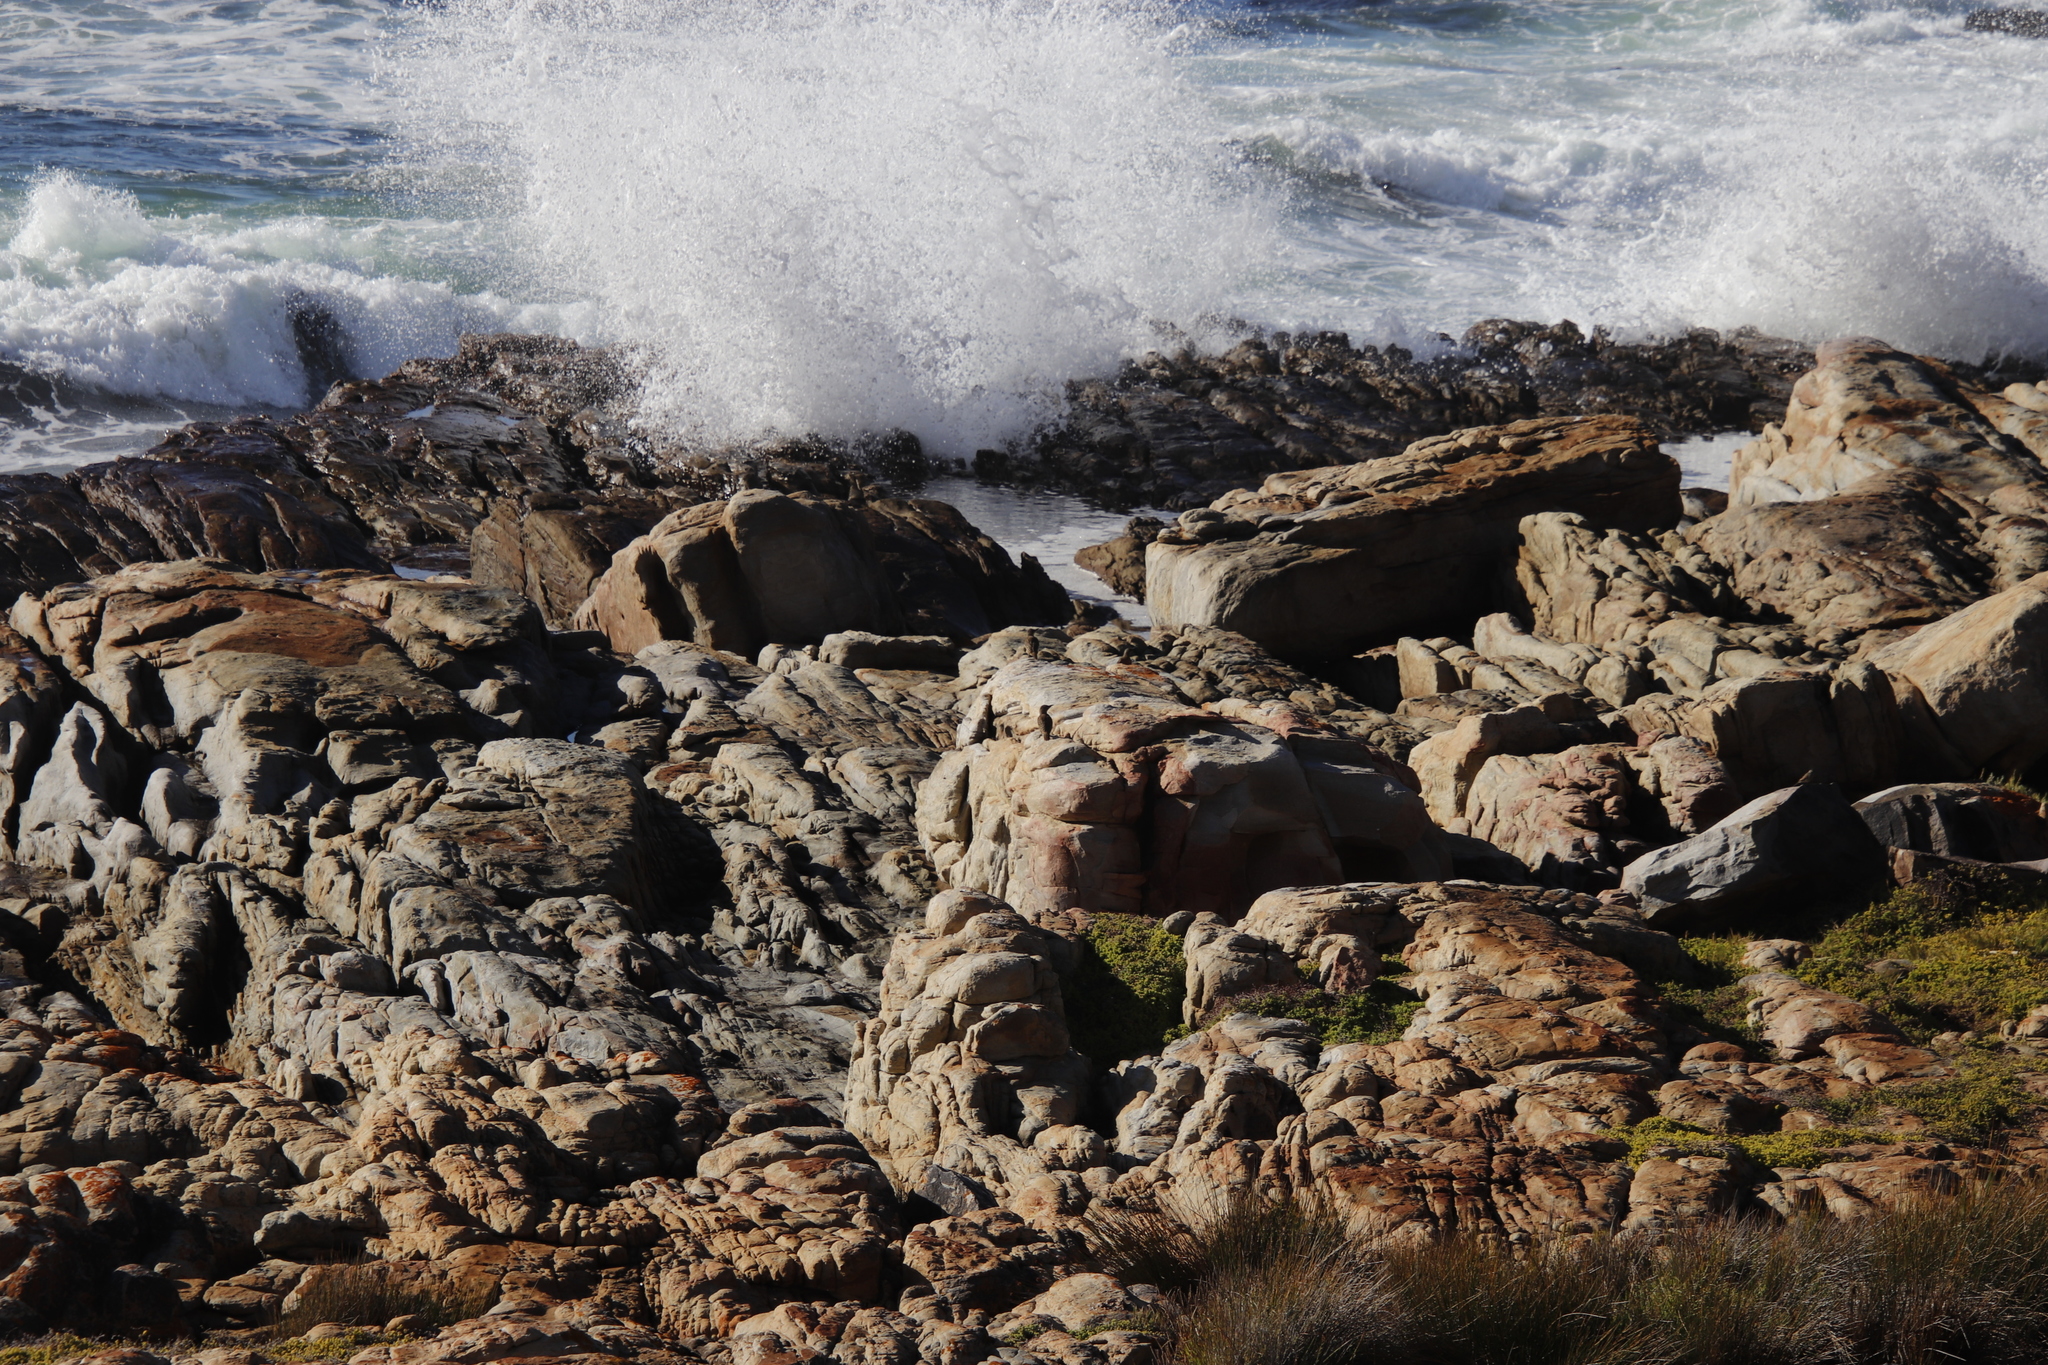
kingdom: Animalia
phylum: Chordata
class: Aves
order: Piciformes
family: Picidae
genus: Geocolaptes
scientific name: Geocolaptes olivaceus
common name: Ground woodpecker
